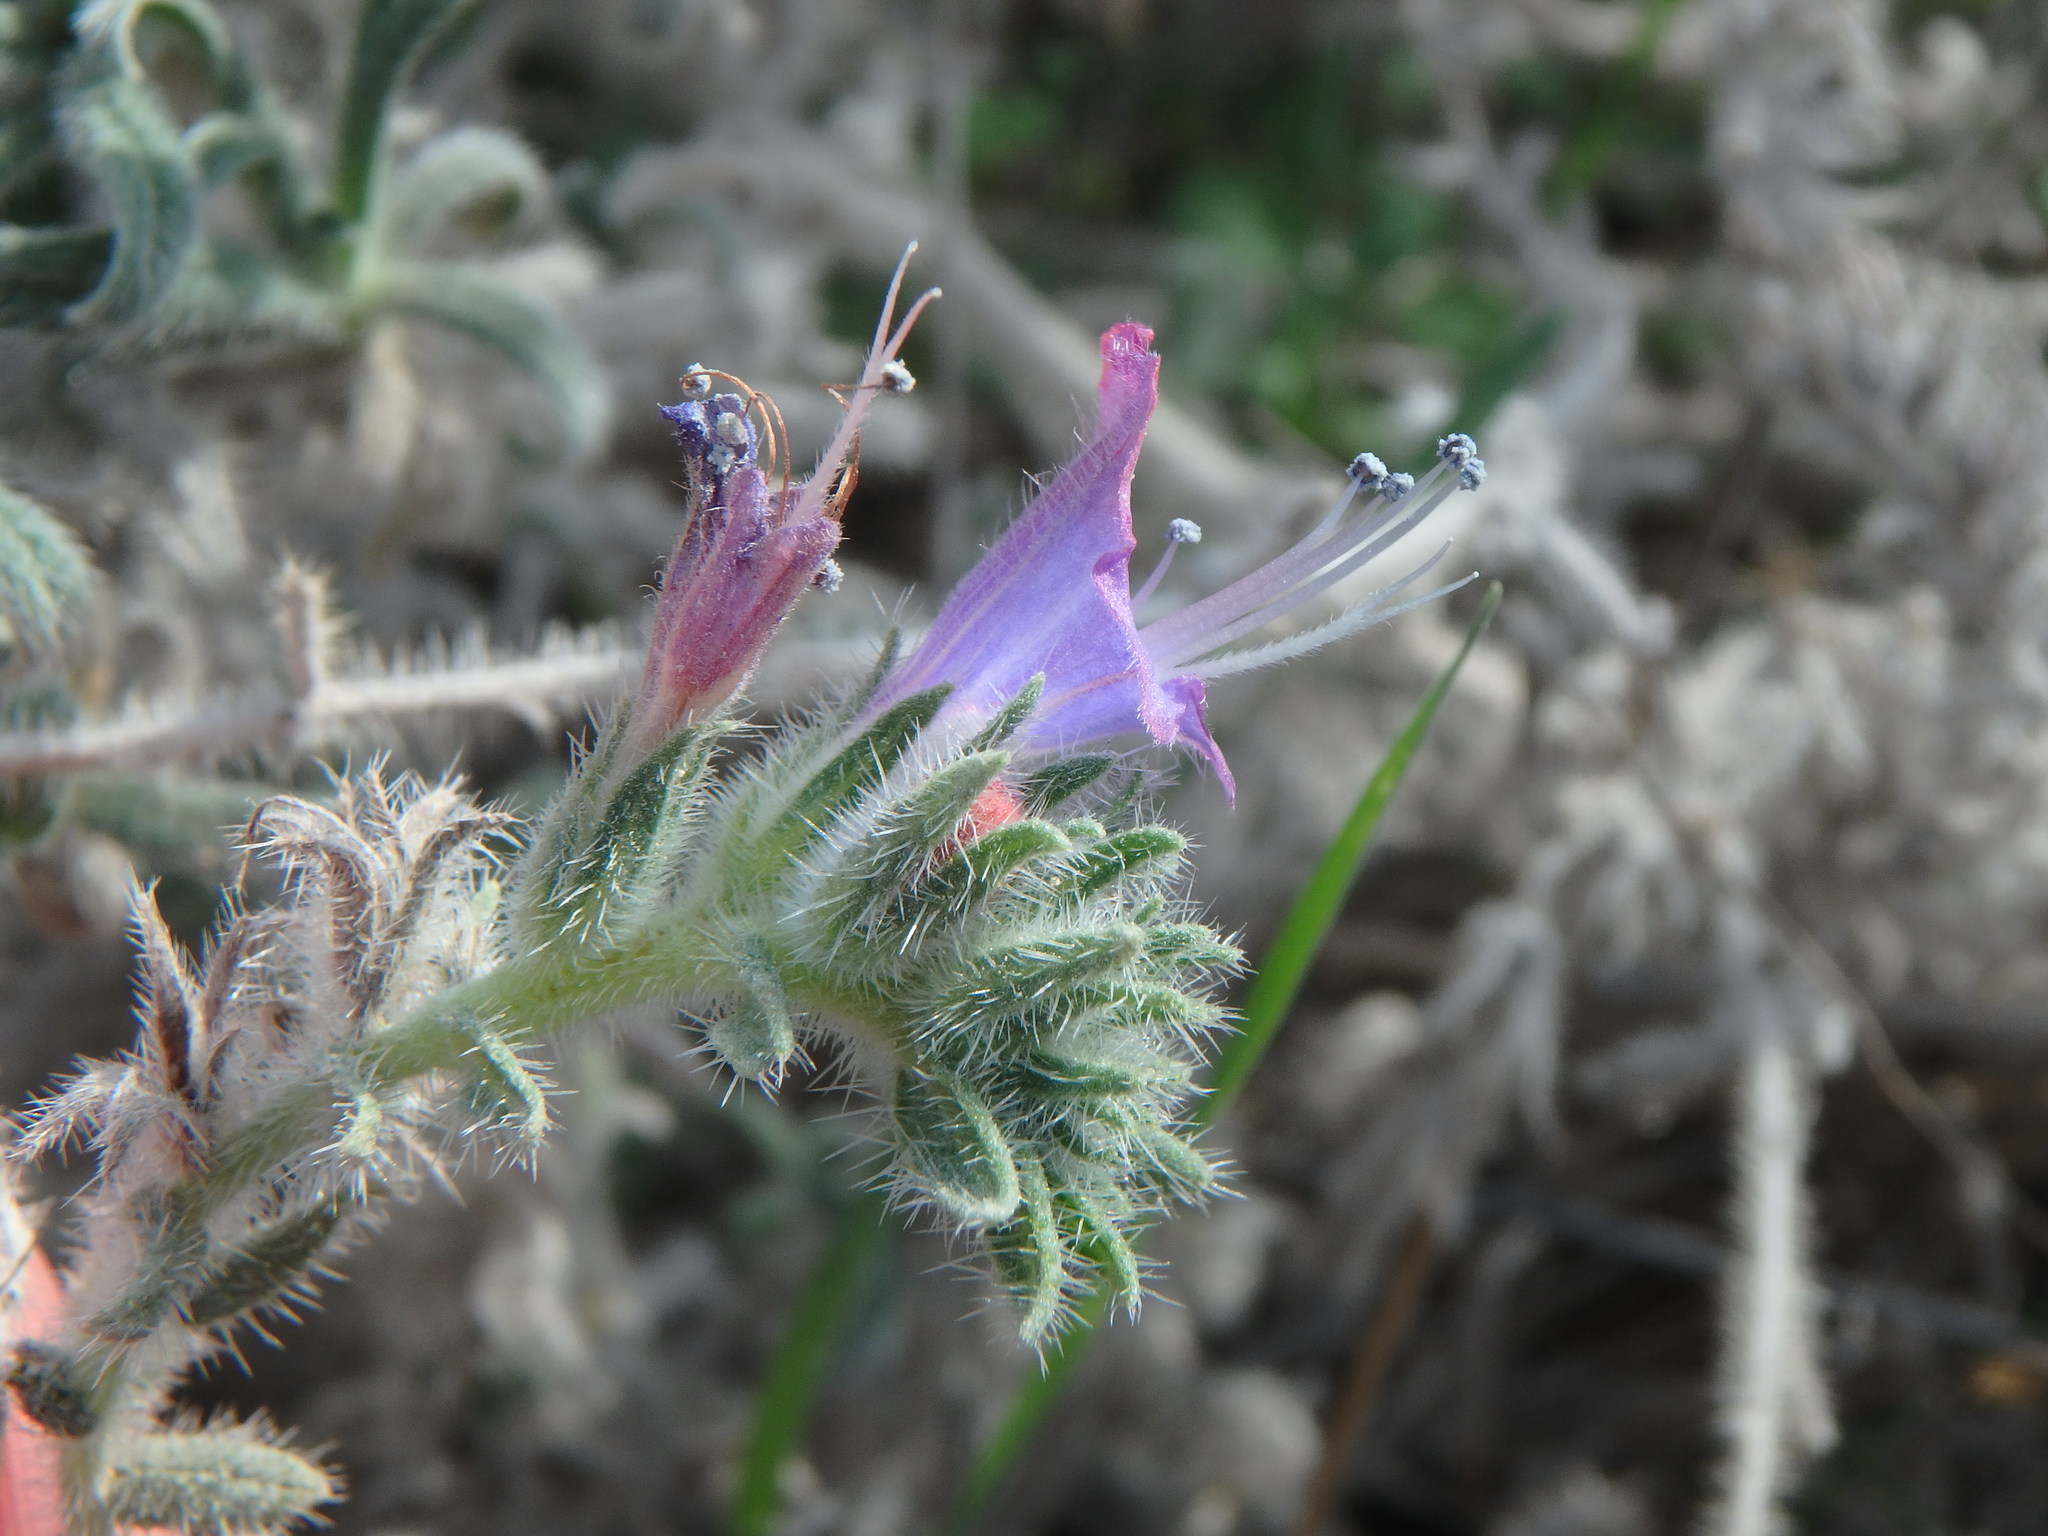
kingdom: Plantae
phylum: Tracheophyta
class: Magnoliopsida
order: Boraginales
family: Boraginaceae
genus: Echium
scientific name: Echium angustifolium
